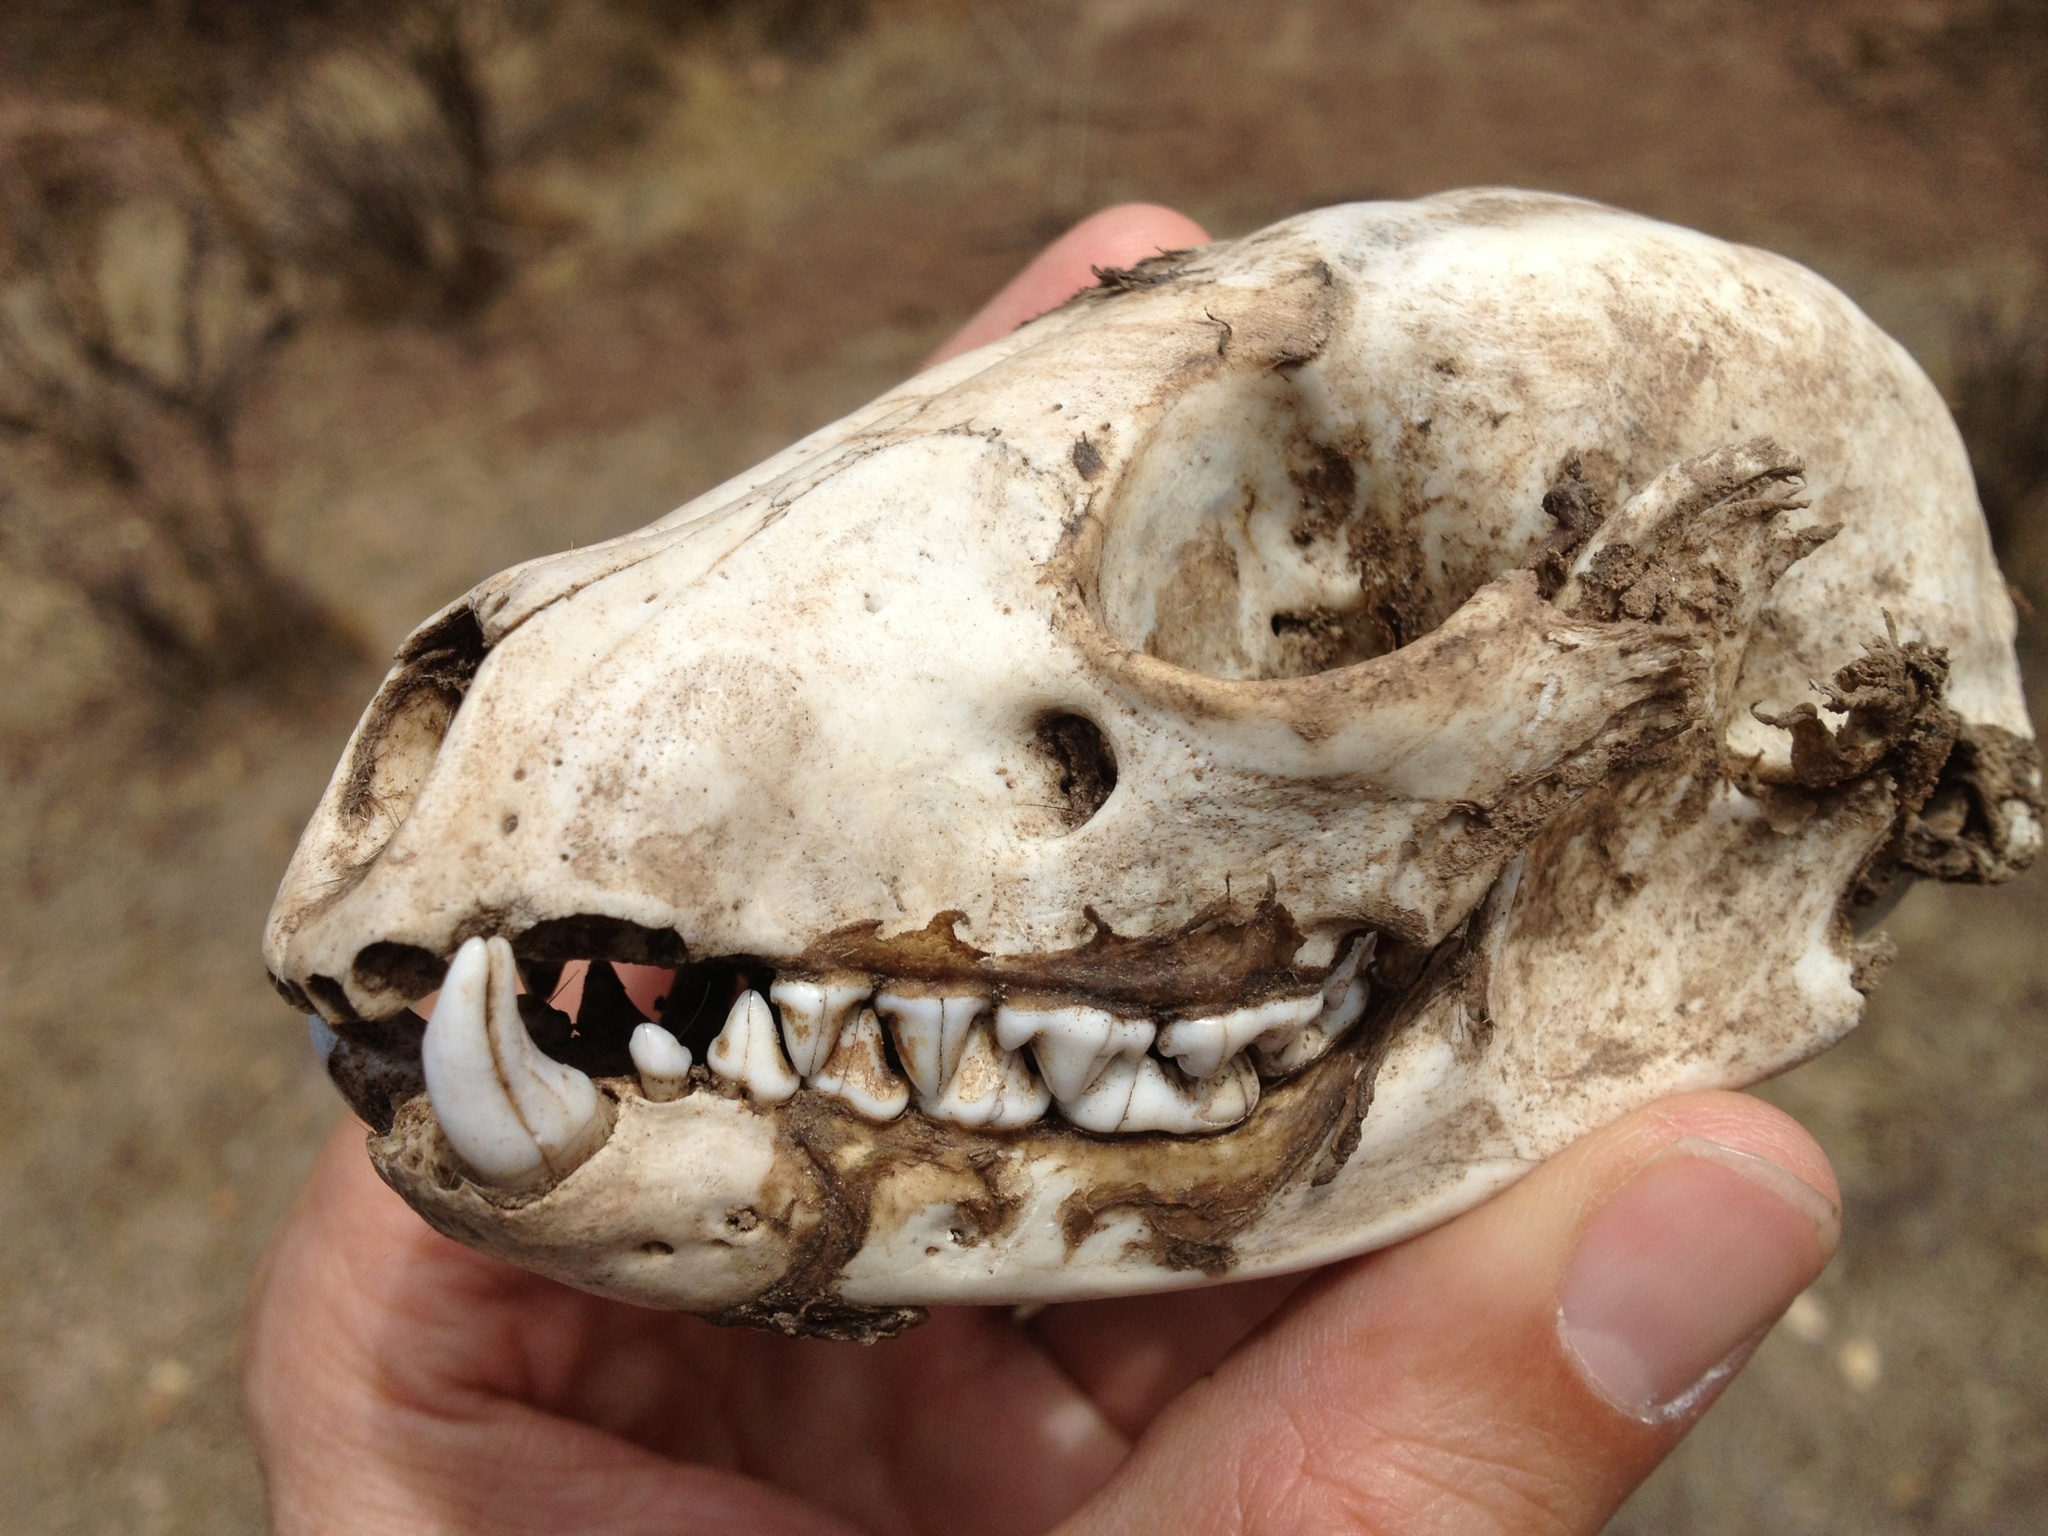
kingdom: Animalia
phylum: Chordata
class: Mammalia
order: Carnivora
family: Procyonidae
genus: Procyon
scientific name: Procyon lotor
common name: Raccoon
